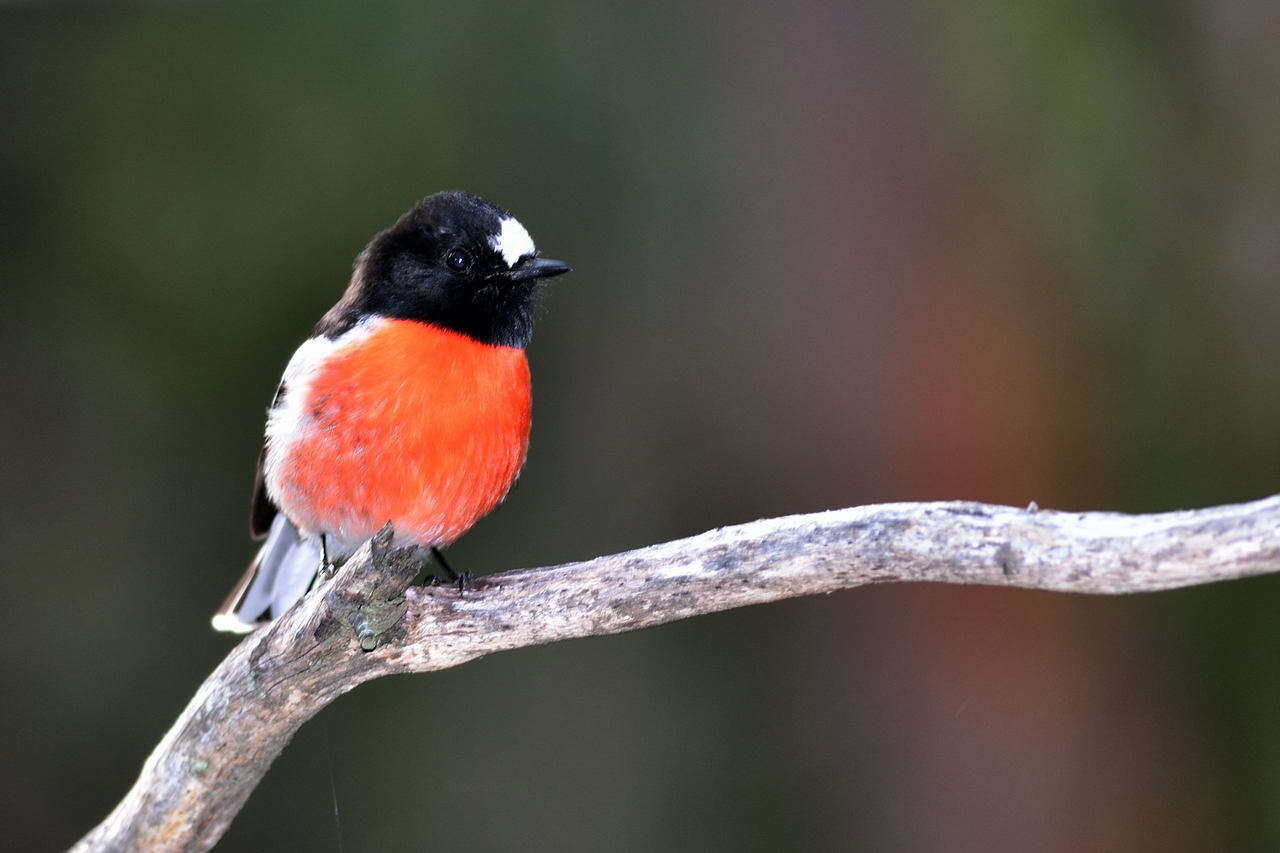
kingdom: Animalia
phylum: Chordata
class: Aves
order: Passeriformes
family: Petroicidae
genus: Petroica
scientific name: Petroica boodang
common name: Scarlet robin
